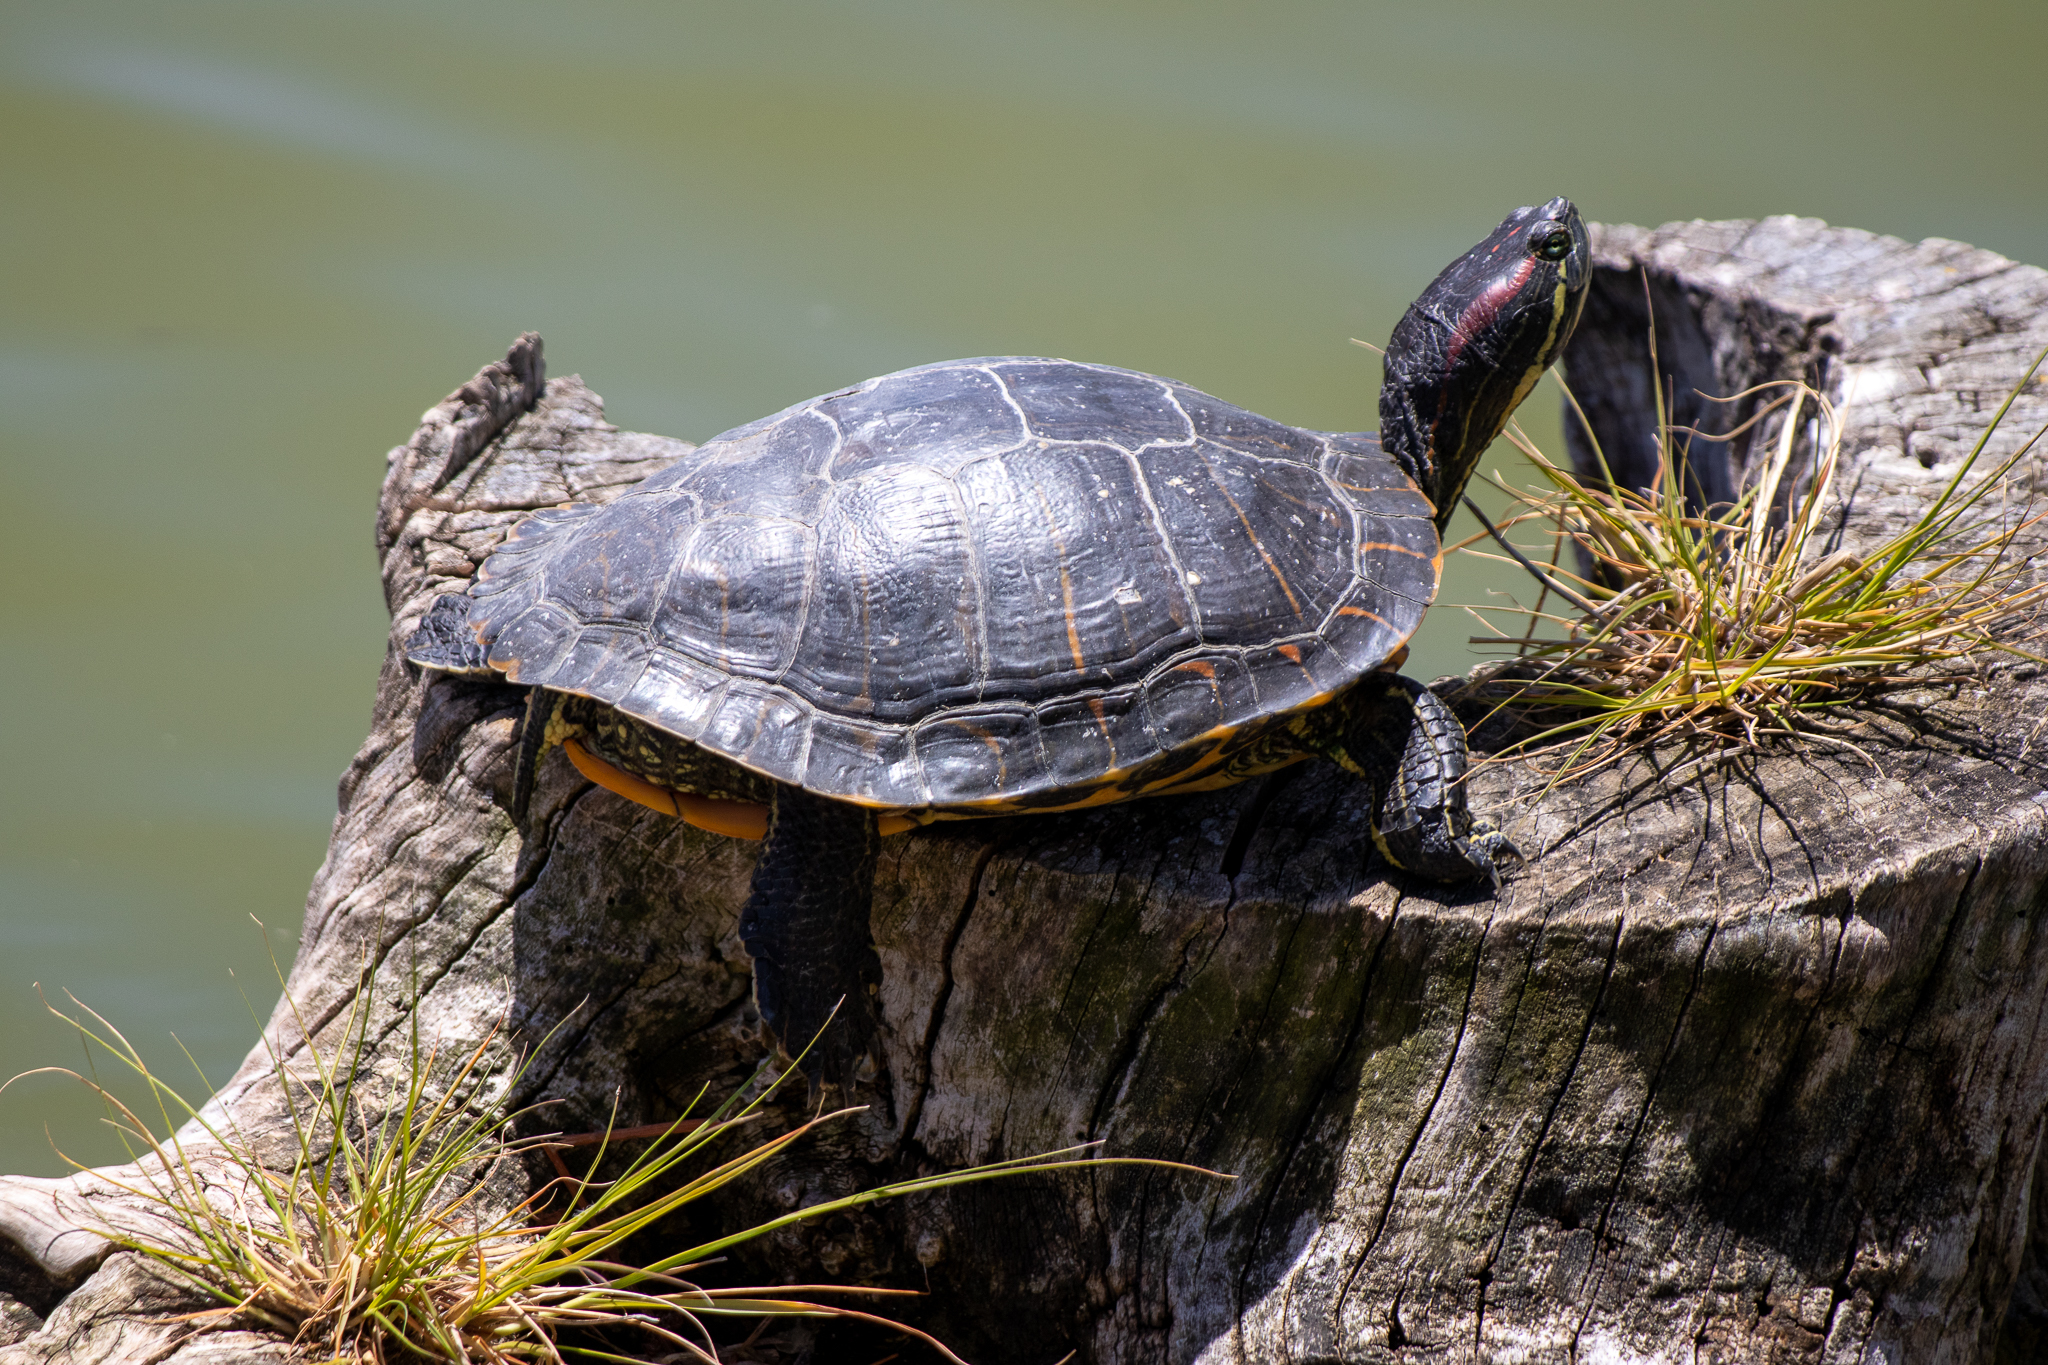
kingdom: Animalia
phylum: Chordata
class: Testudines
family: Emydidae
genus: Trachemys
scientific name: Trachemys scripta
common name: Slider
